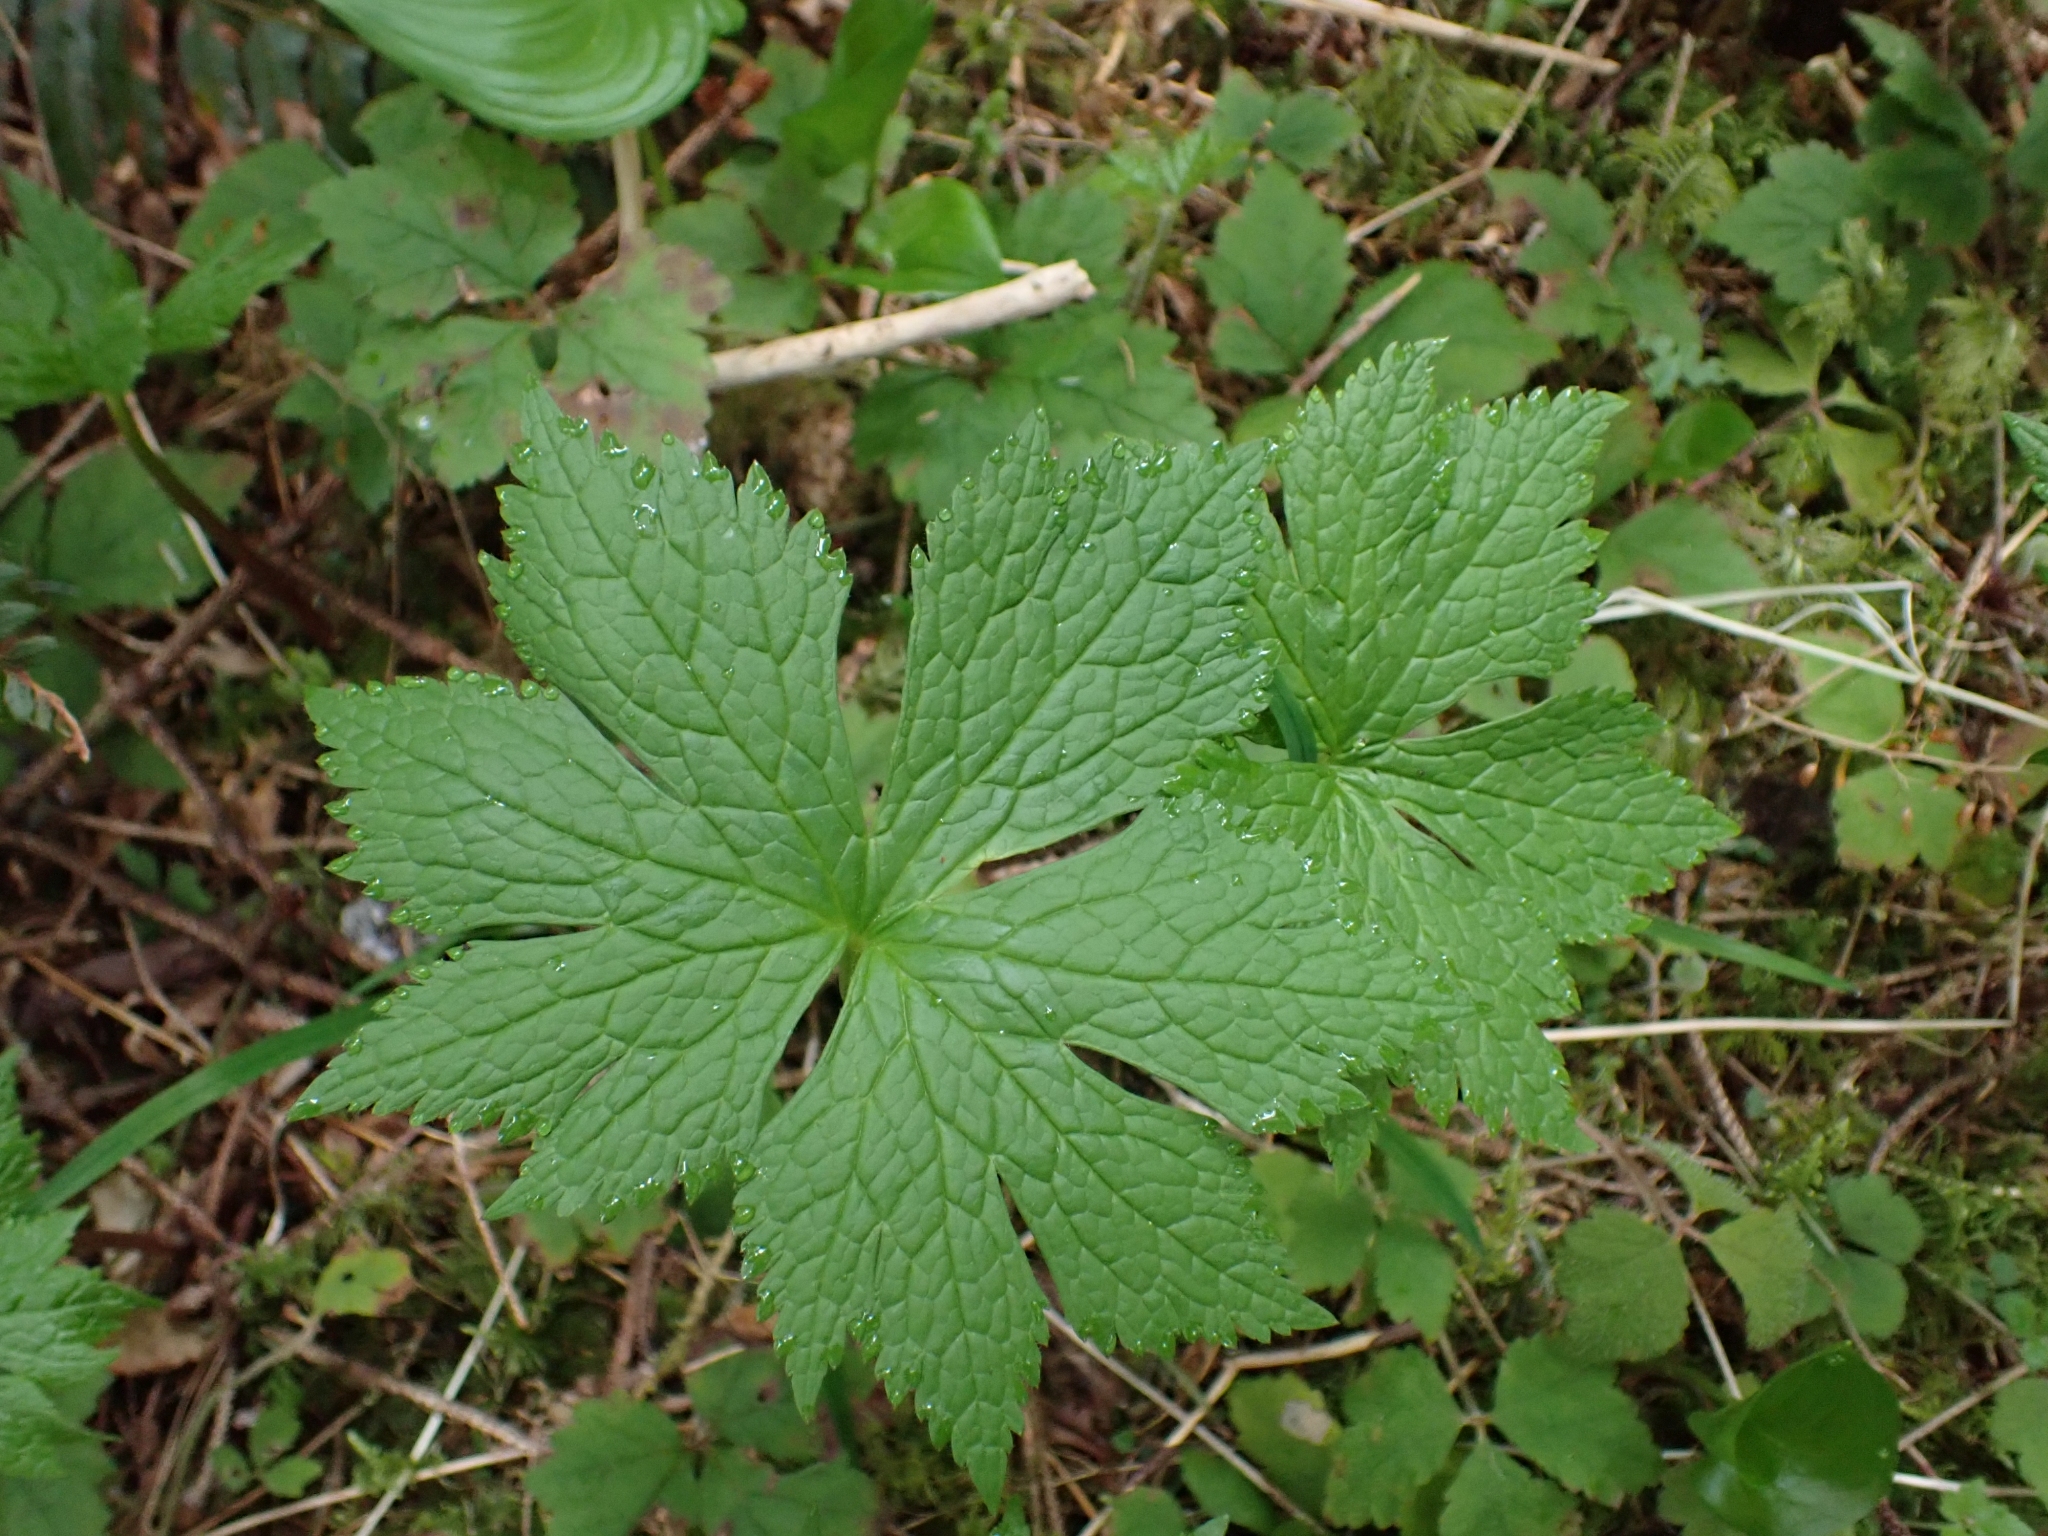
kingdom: Plantae
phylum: Tracheophyta
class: Magnoliopsida
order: Ranunculales
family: Ranunculaceae
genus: Trautvetteria
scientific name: Trautvetteria carolinensis
